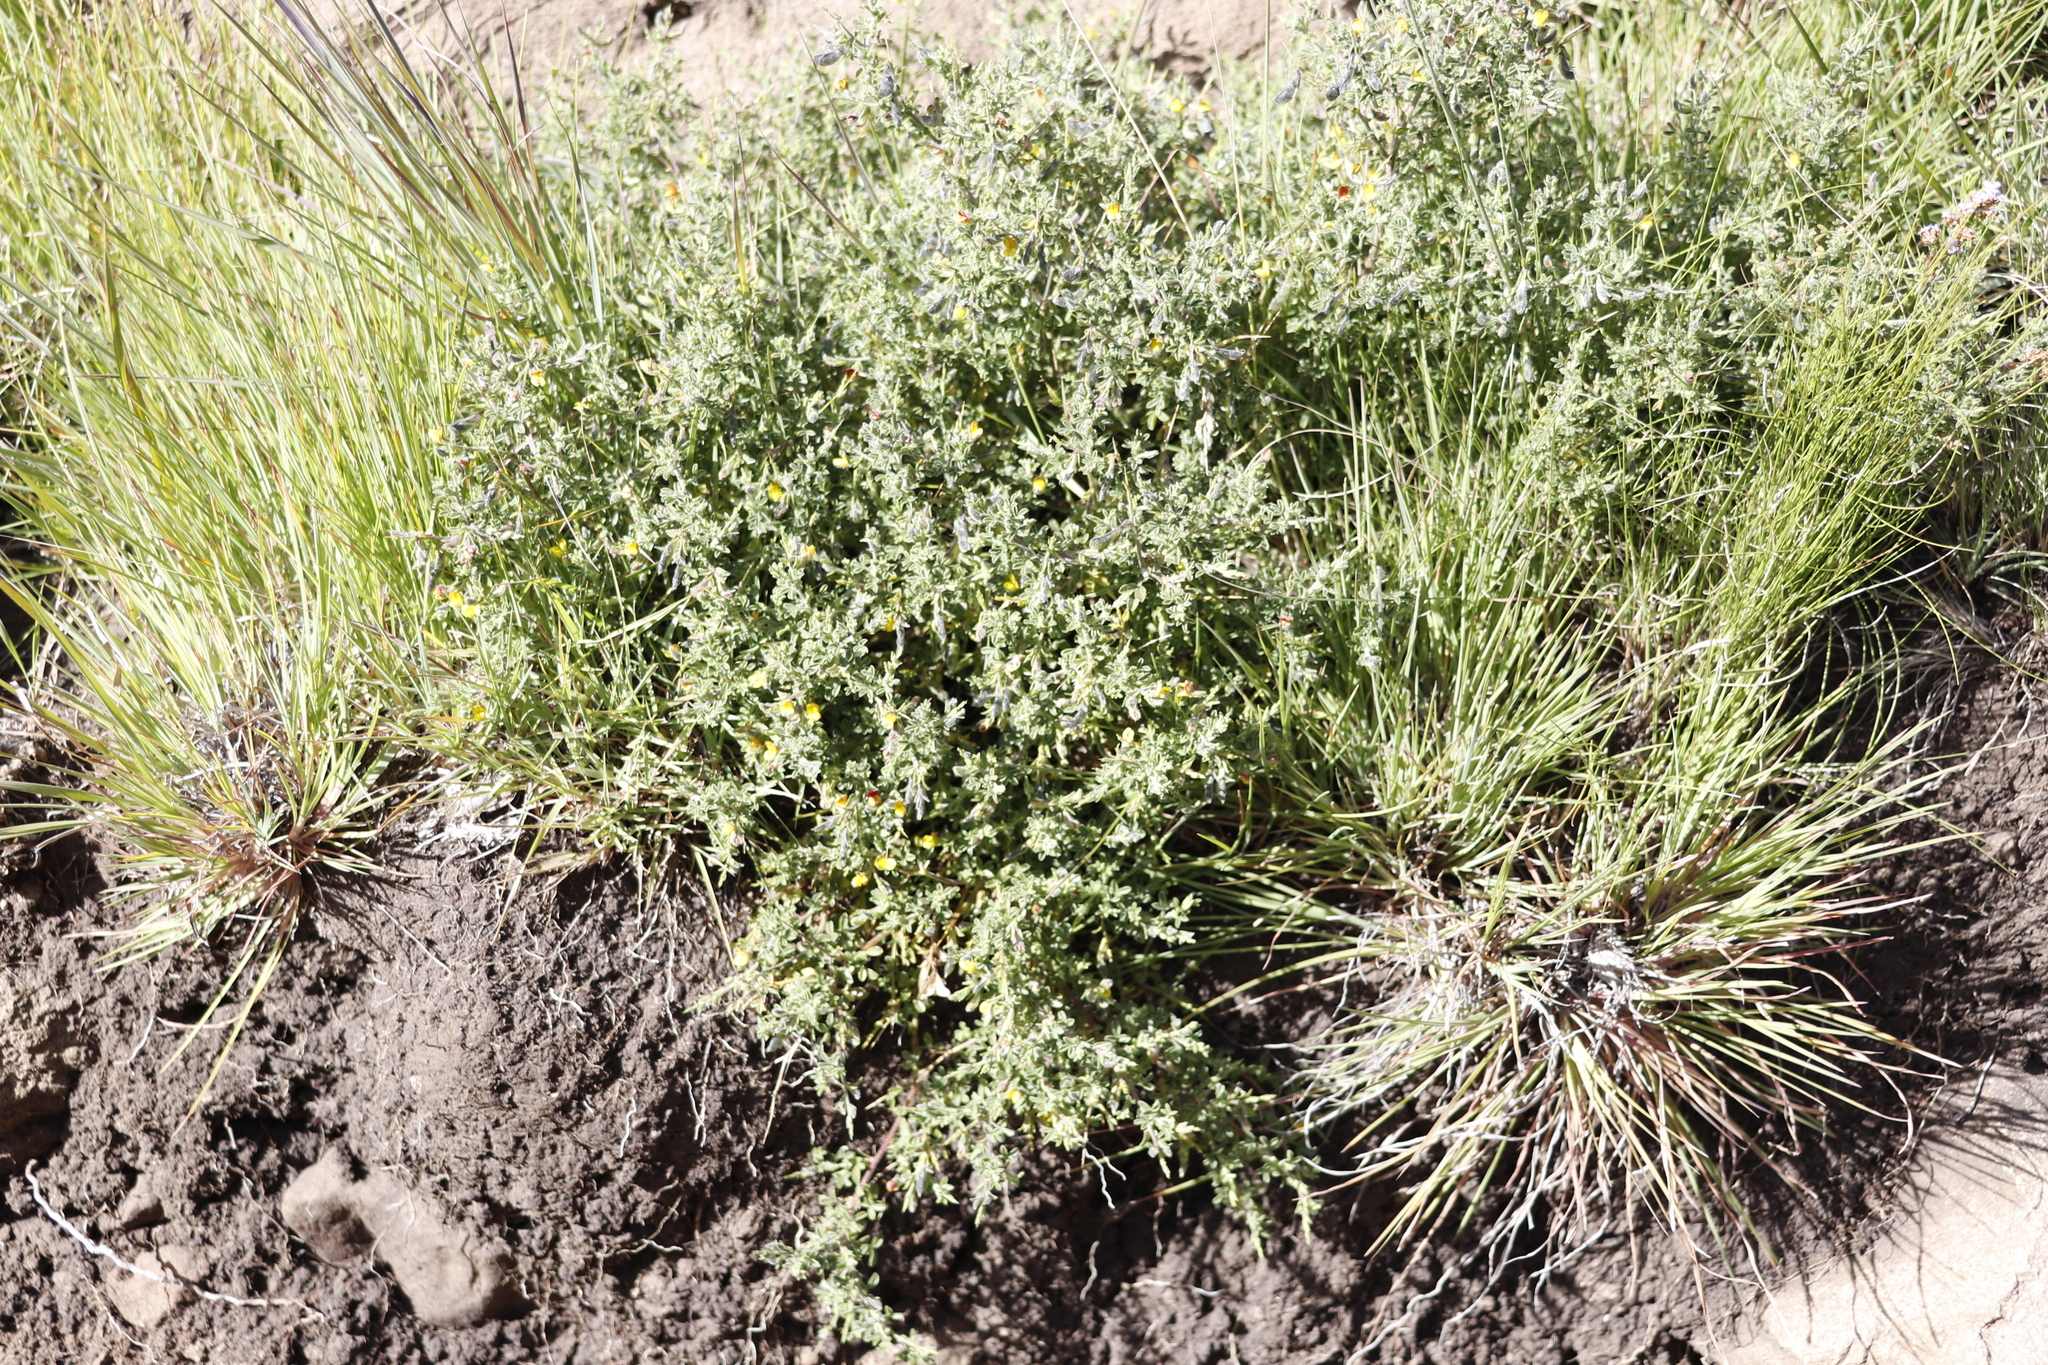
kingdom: Plantae
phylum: Tracheophyta
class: Magnoliopsida
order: Fabales
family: Fabaceae
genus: Melolobium
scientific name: Melolobium microphyllum
